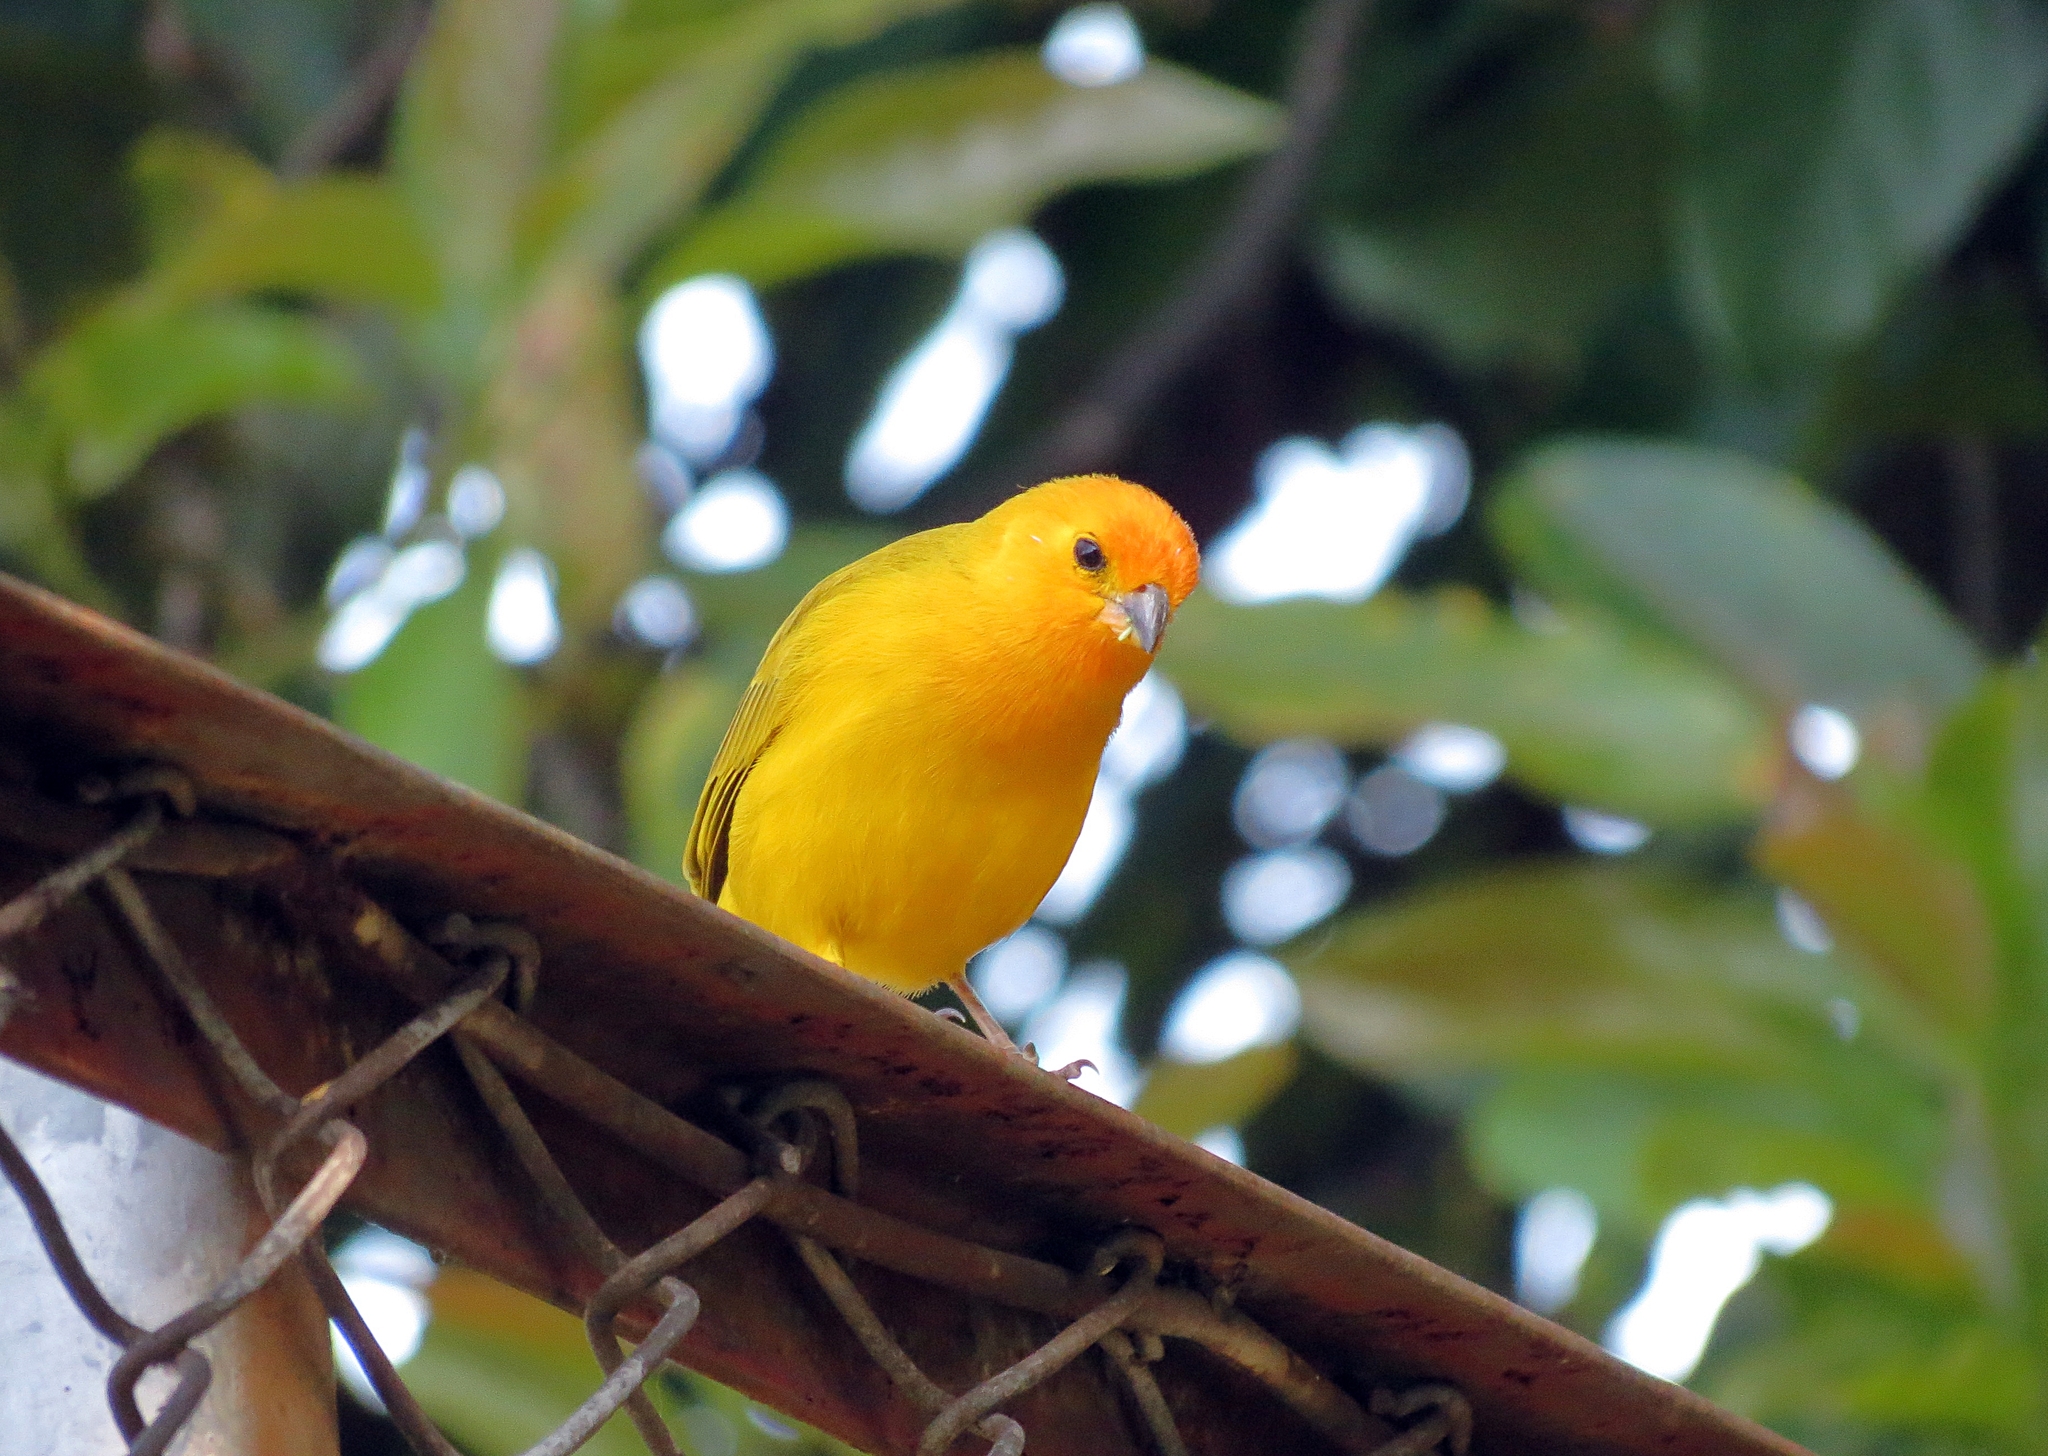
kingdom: Animalia
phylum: Chordata
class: Aves
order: Passeriformes
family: Thraupidae
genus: Sicalis
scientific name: Sicalis flaveola
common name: Saffron finch
